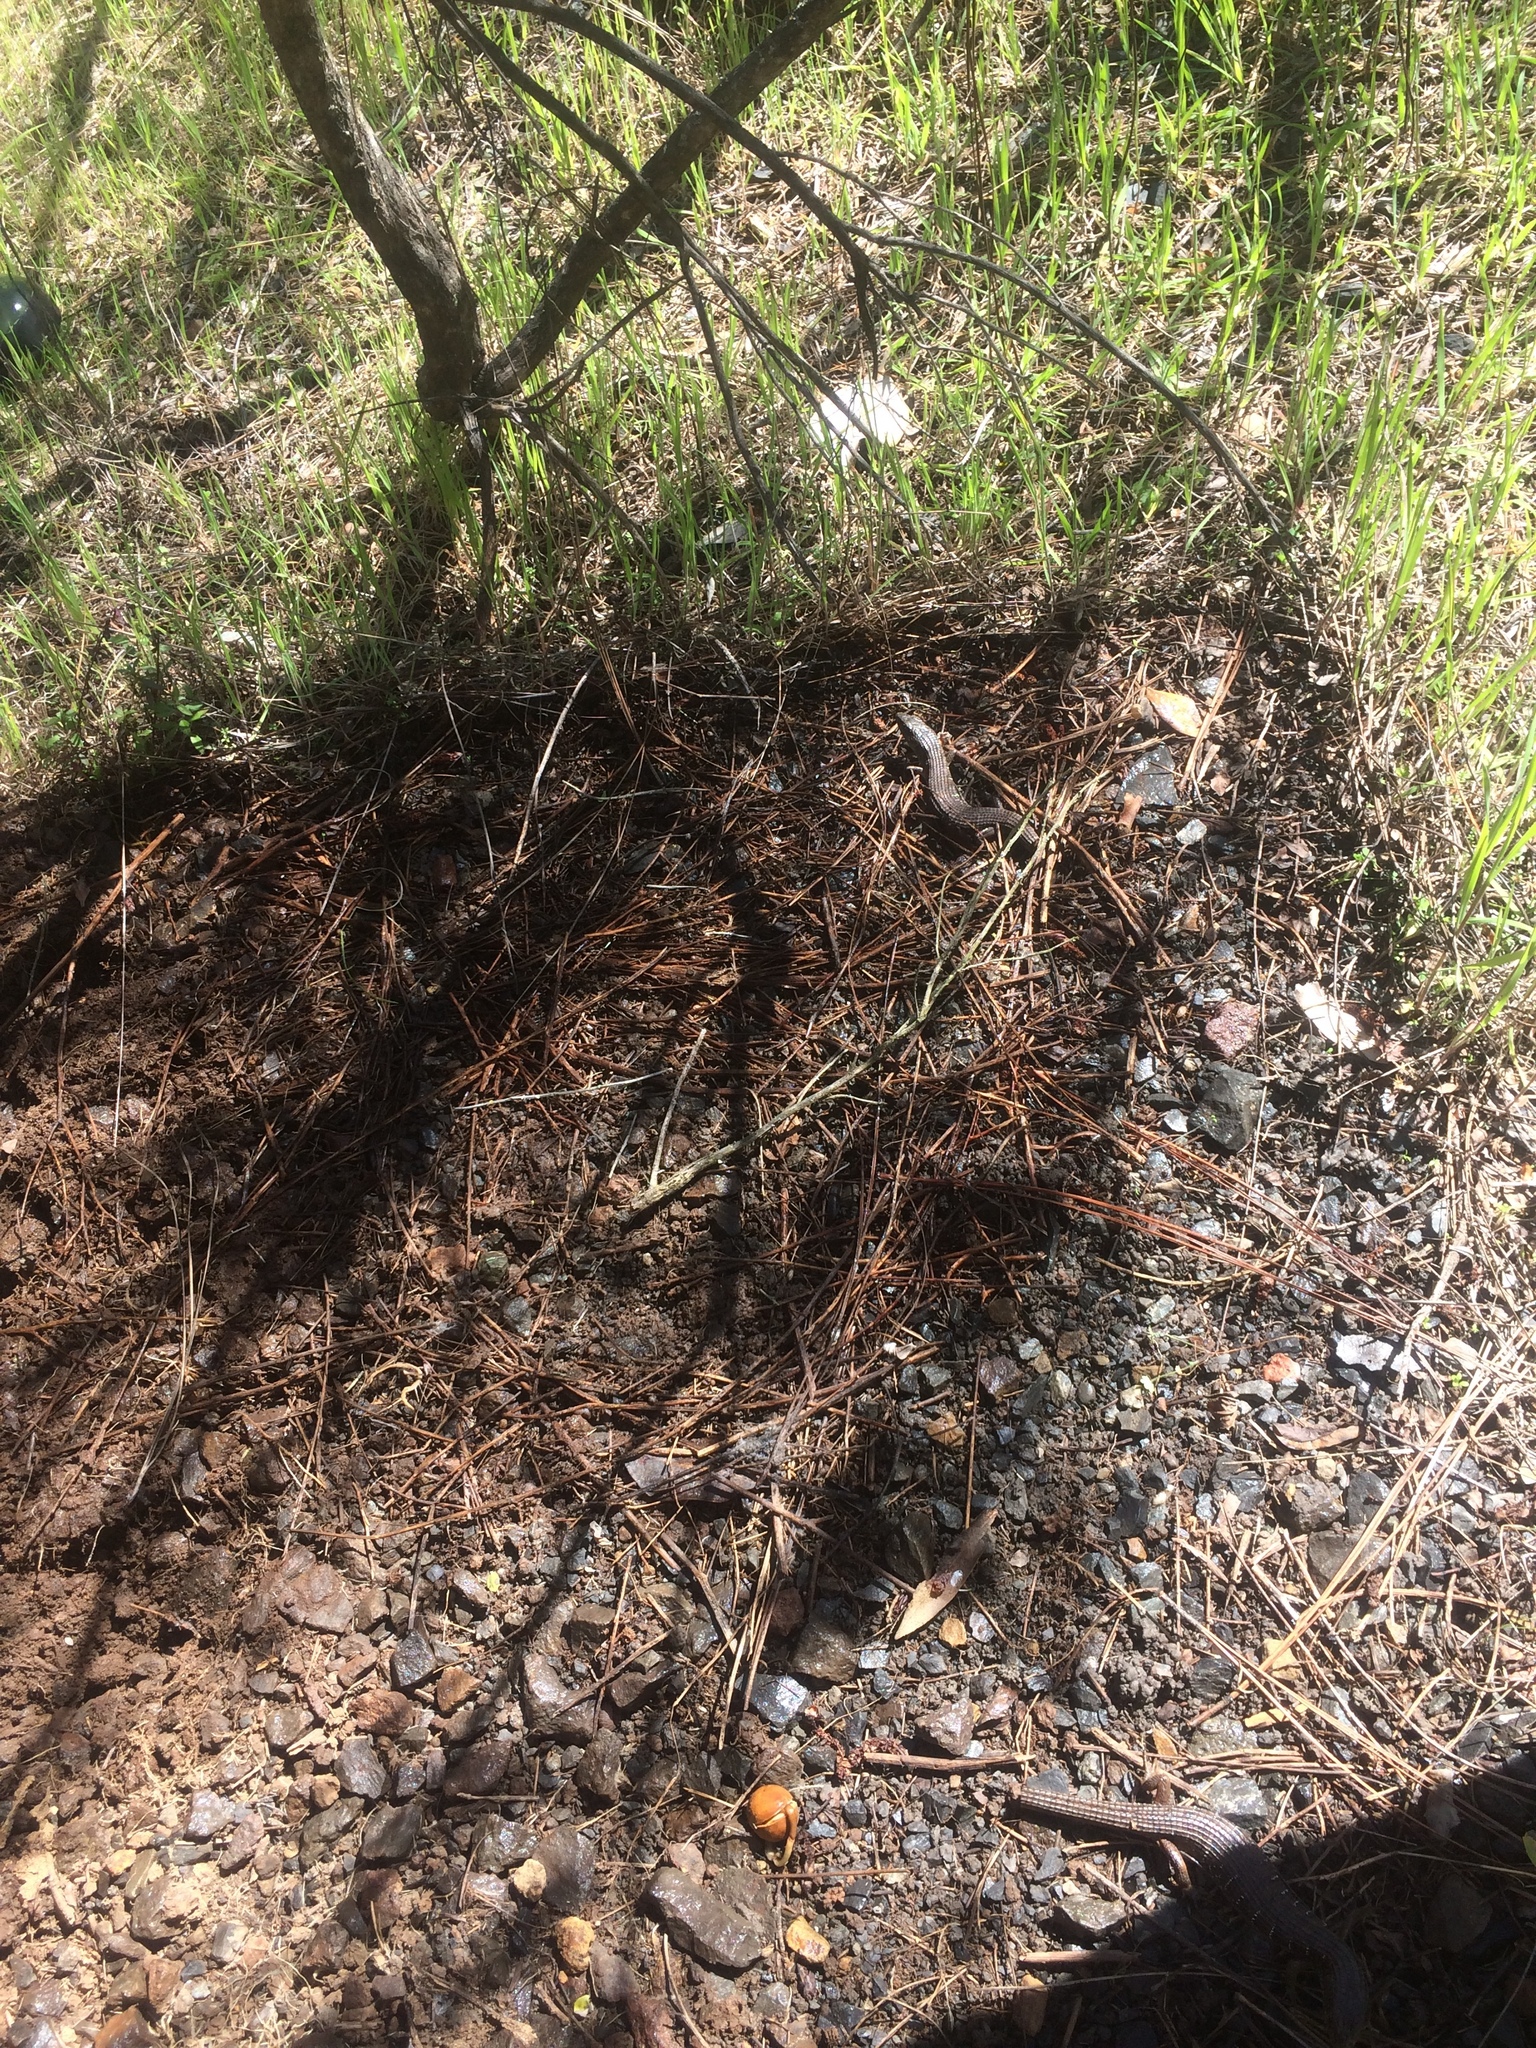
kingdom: Animalia
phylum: Chordata
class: Squamata
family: Anguidae
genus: Elgaria
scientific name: Elgaria multicarinata
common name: Southern alligator lizard
